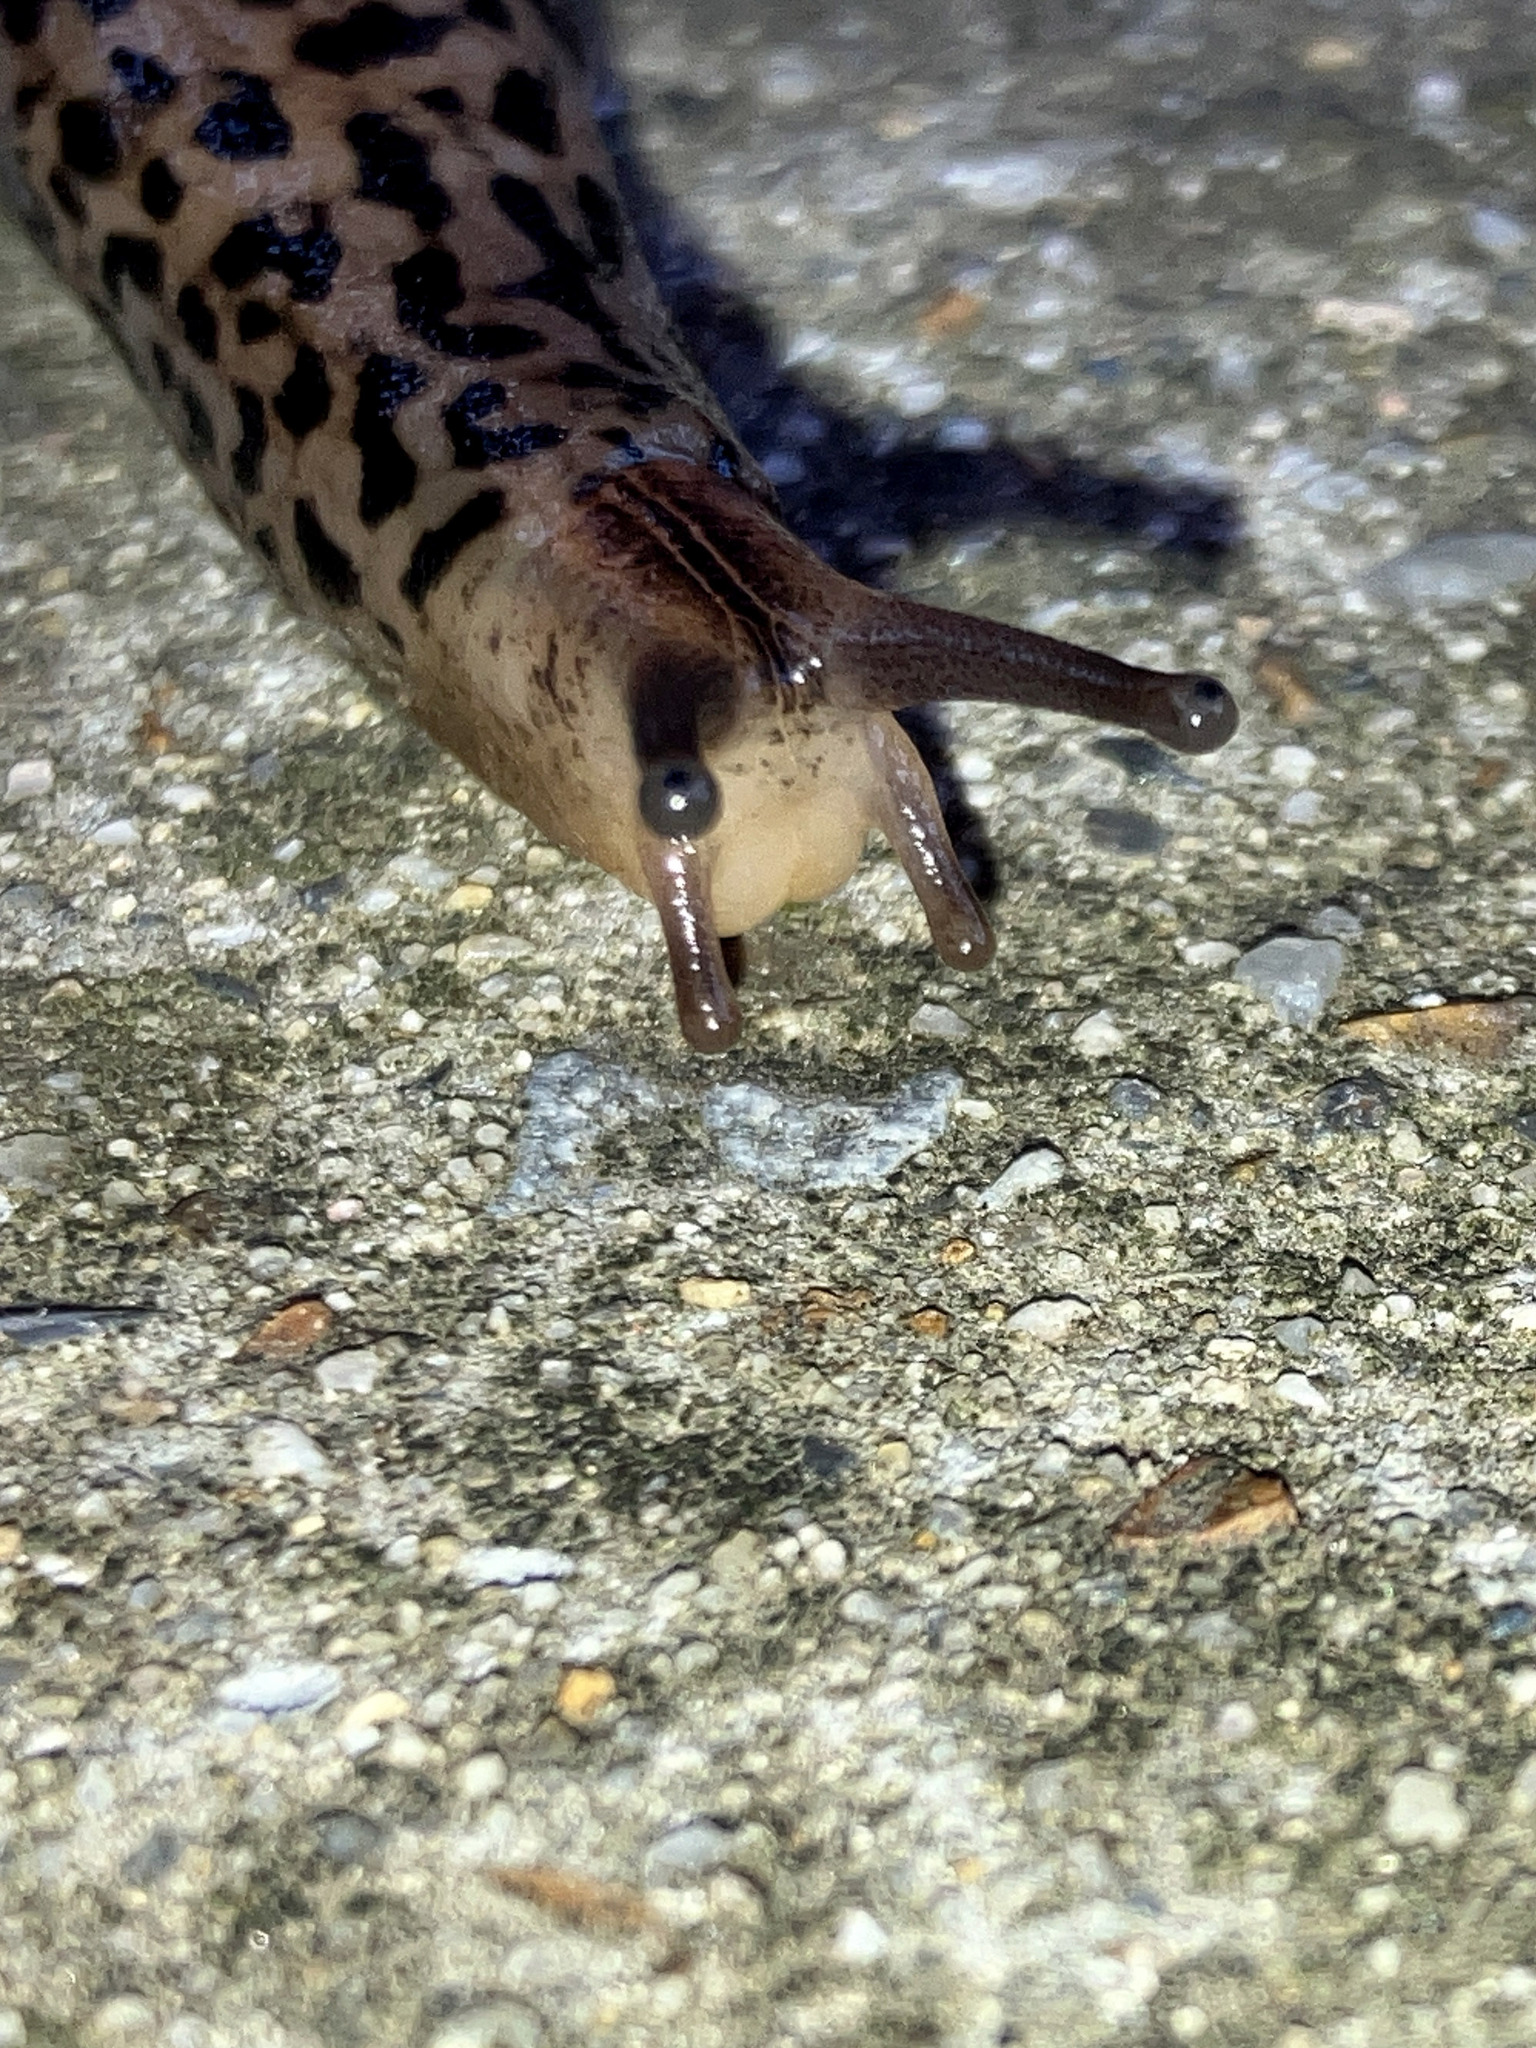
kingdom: Animalia
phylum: Mollusca
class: Gastropoda
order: Stylommatophora
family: Limacidae
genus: Limax
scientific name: Limax maximus
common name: Great grey slug
